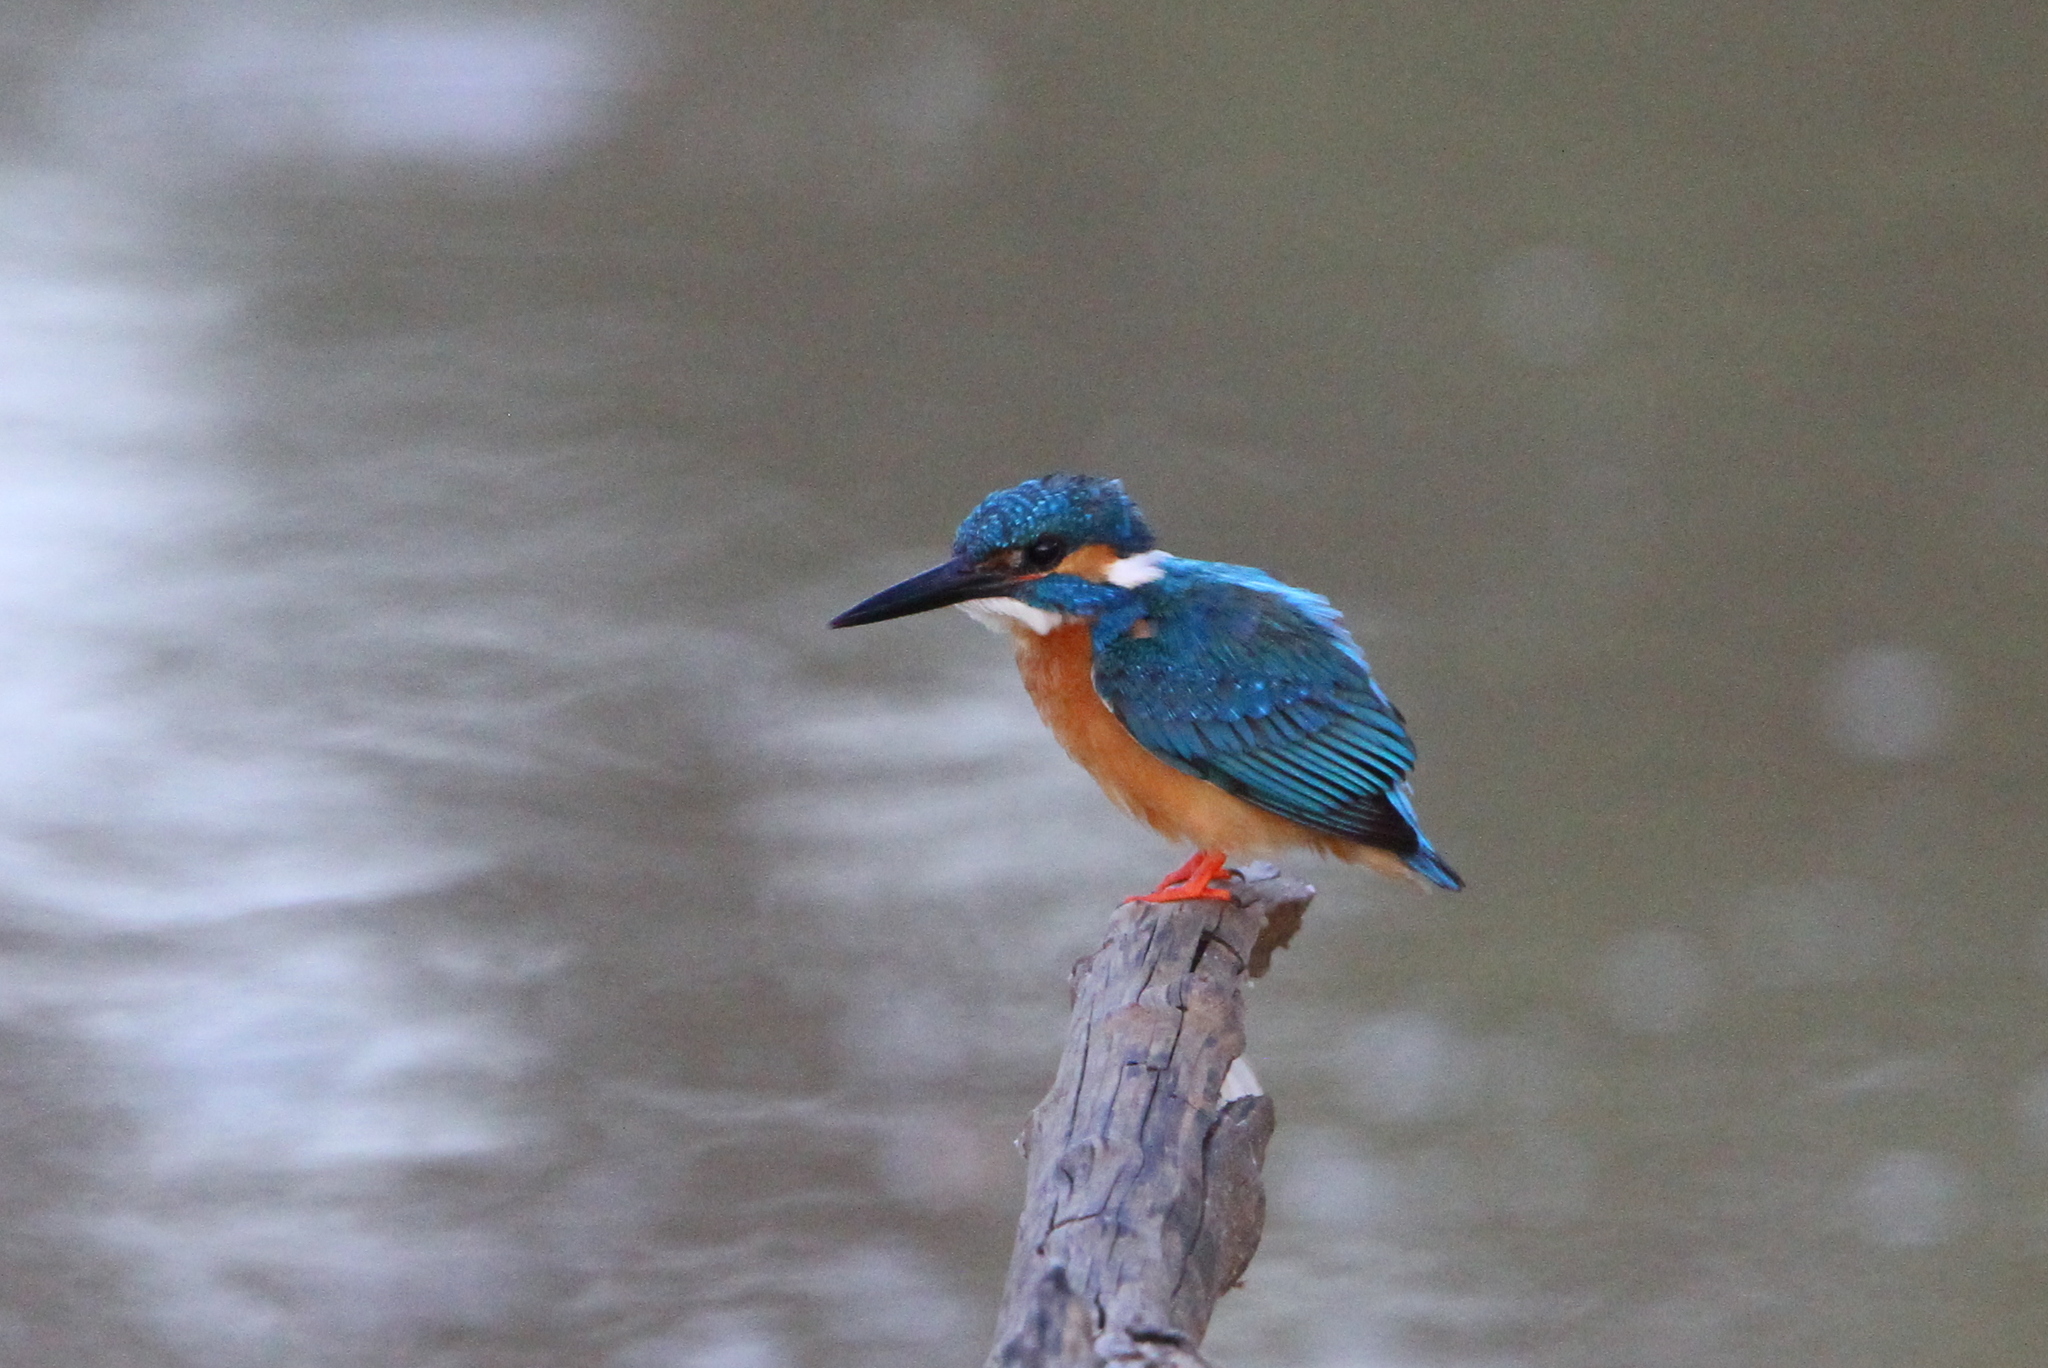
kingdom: Animalia
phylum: Chordata
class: Aves
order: Coraciiformes
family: Alcedinidae
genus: Alcedo
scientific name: Alcedo atthis
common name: Common kingfisher
